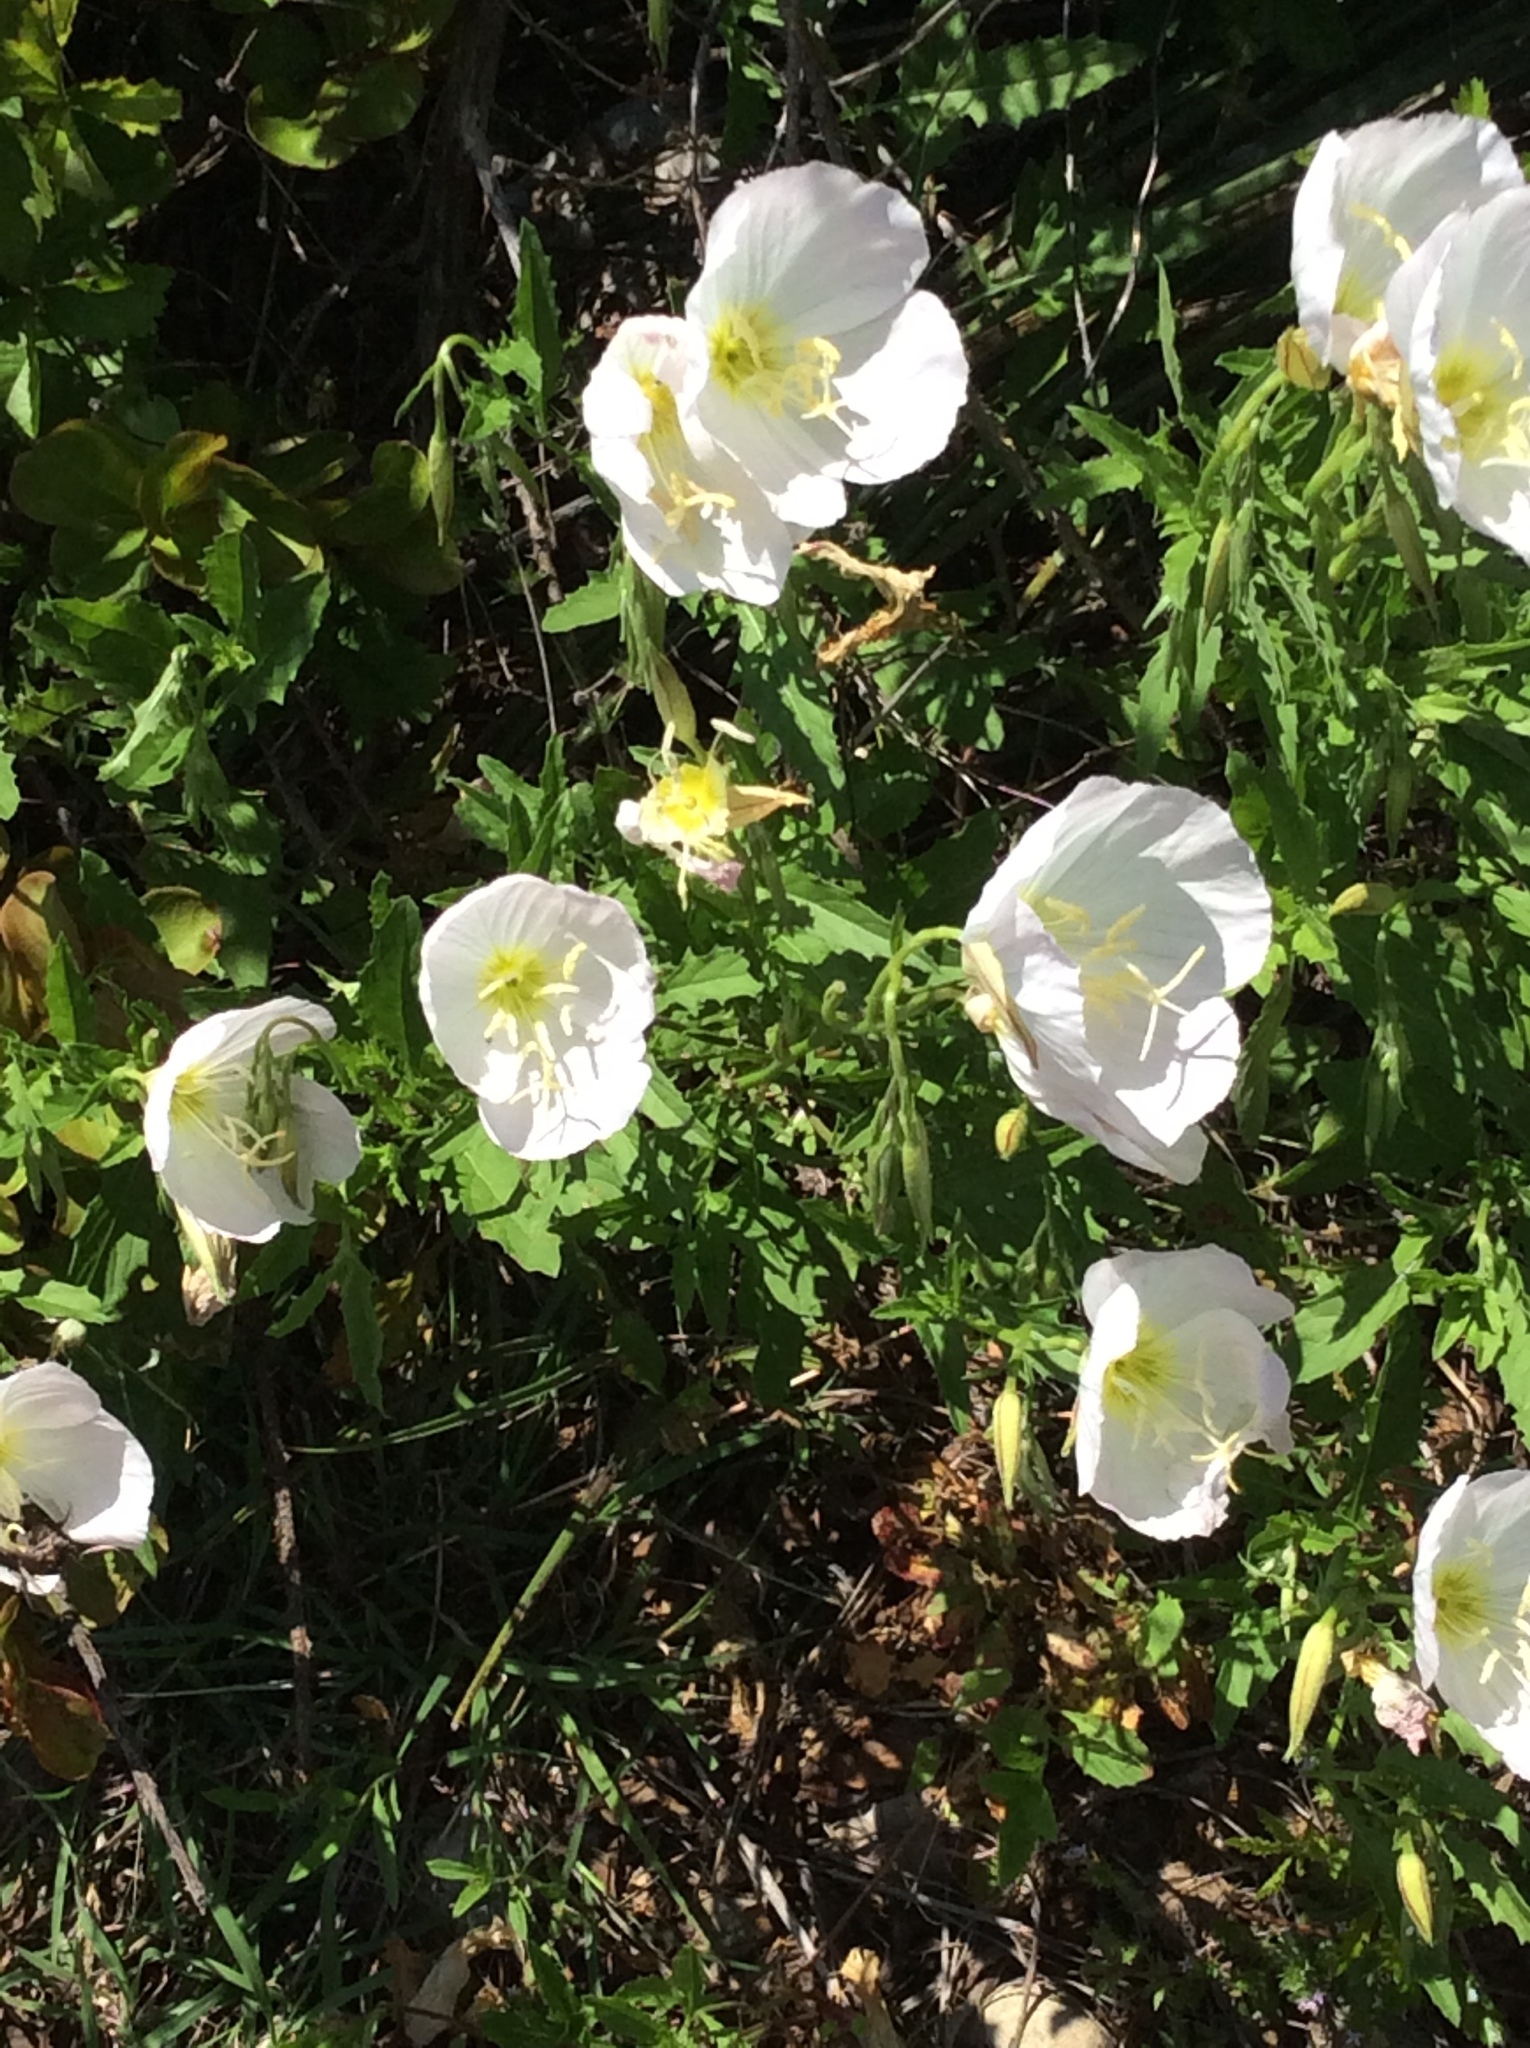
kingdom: Plantae
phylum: Tracheophyta
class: Magnoliopsida
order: Myrtales
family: Onagraceae
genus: Oenothera
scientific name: Oenothera speciosa
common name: White evening-primrose
